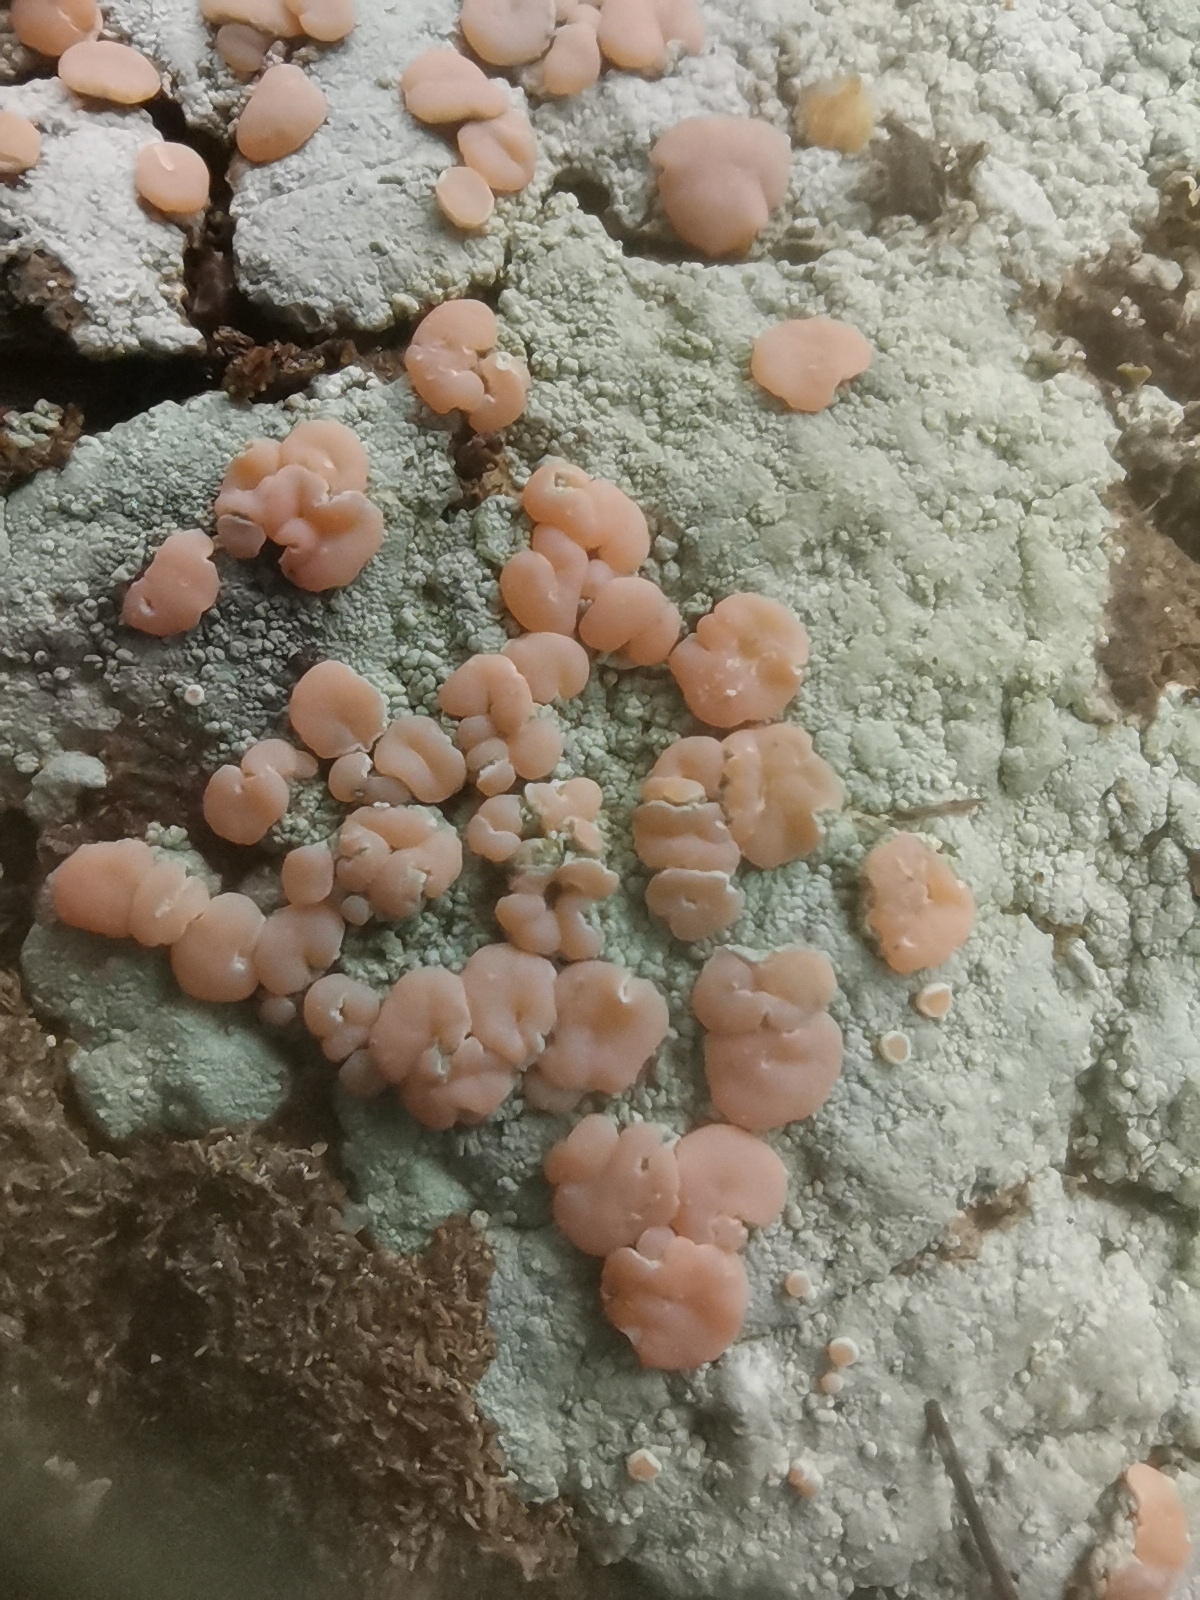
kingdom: Fungi
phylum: Ascomycota
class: Lecanoromycetes
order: Pertusariales
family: Icmadophilaceae
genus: Icmadophila
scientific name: Icmadophila ericetorum
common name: Candy lichen
